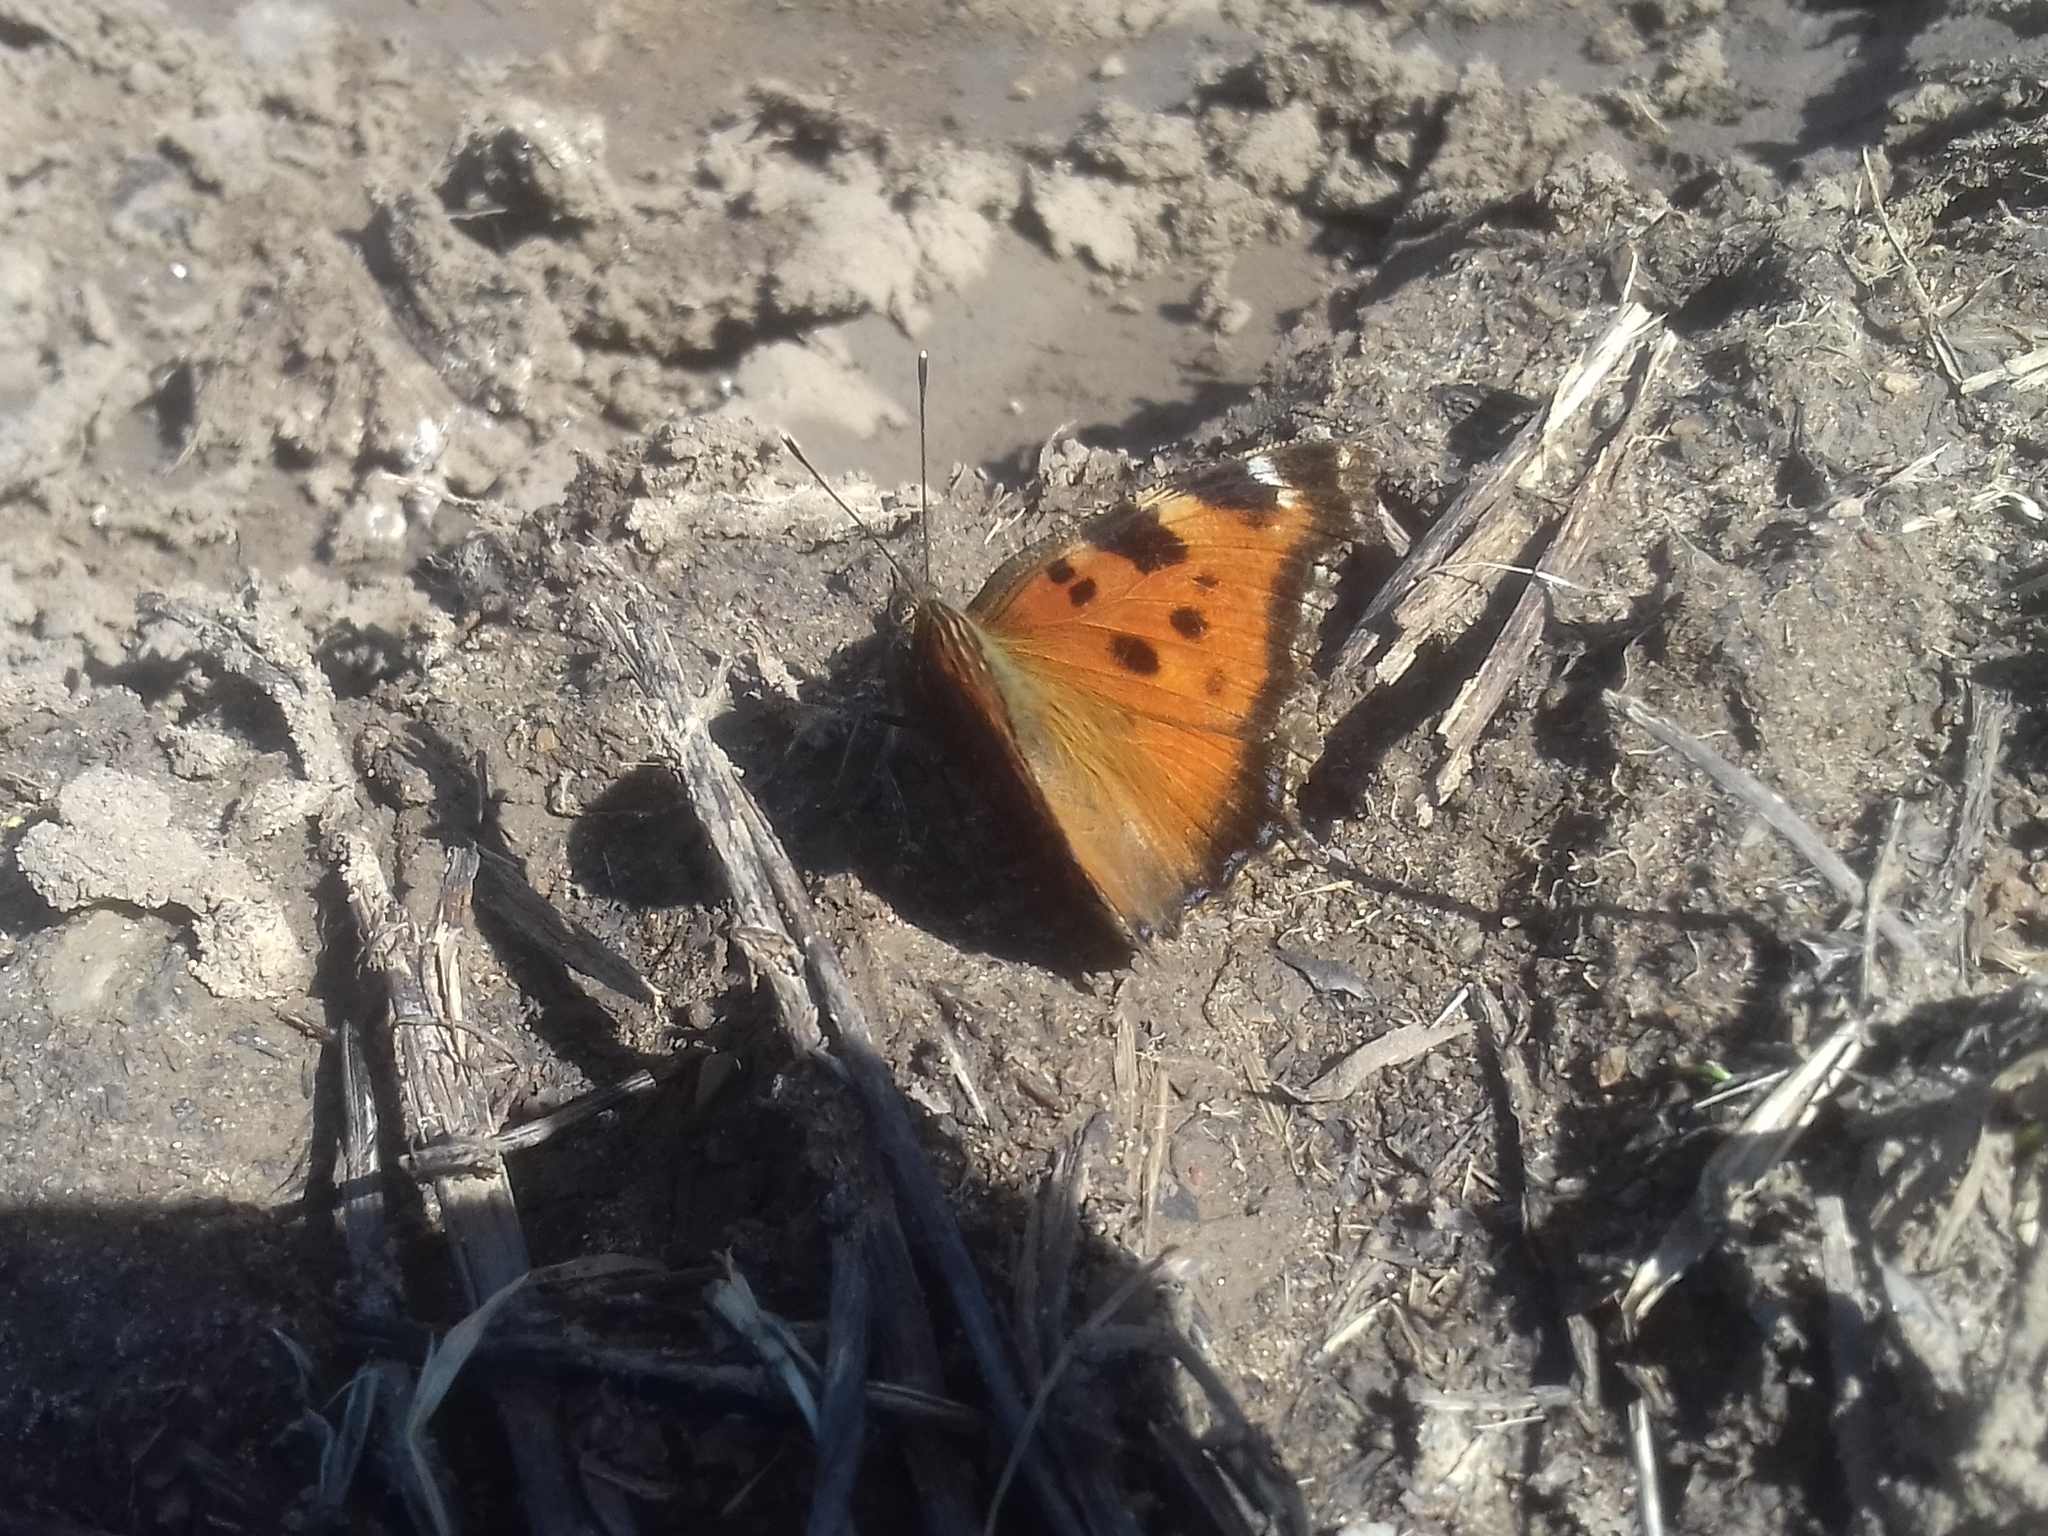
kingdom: Animalia
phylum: Arthropoda
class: Insecta
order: Lepidoptera
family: Nymphalidae
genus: Nymphalis
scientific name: Nymphalis xanthomelas
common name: Scarce tortoiseshell
